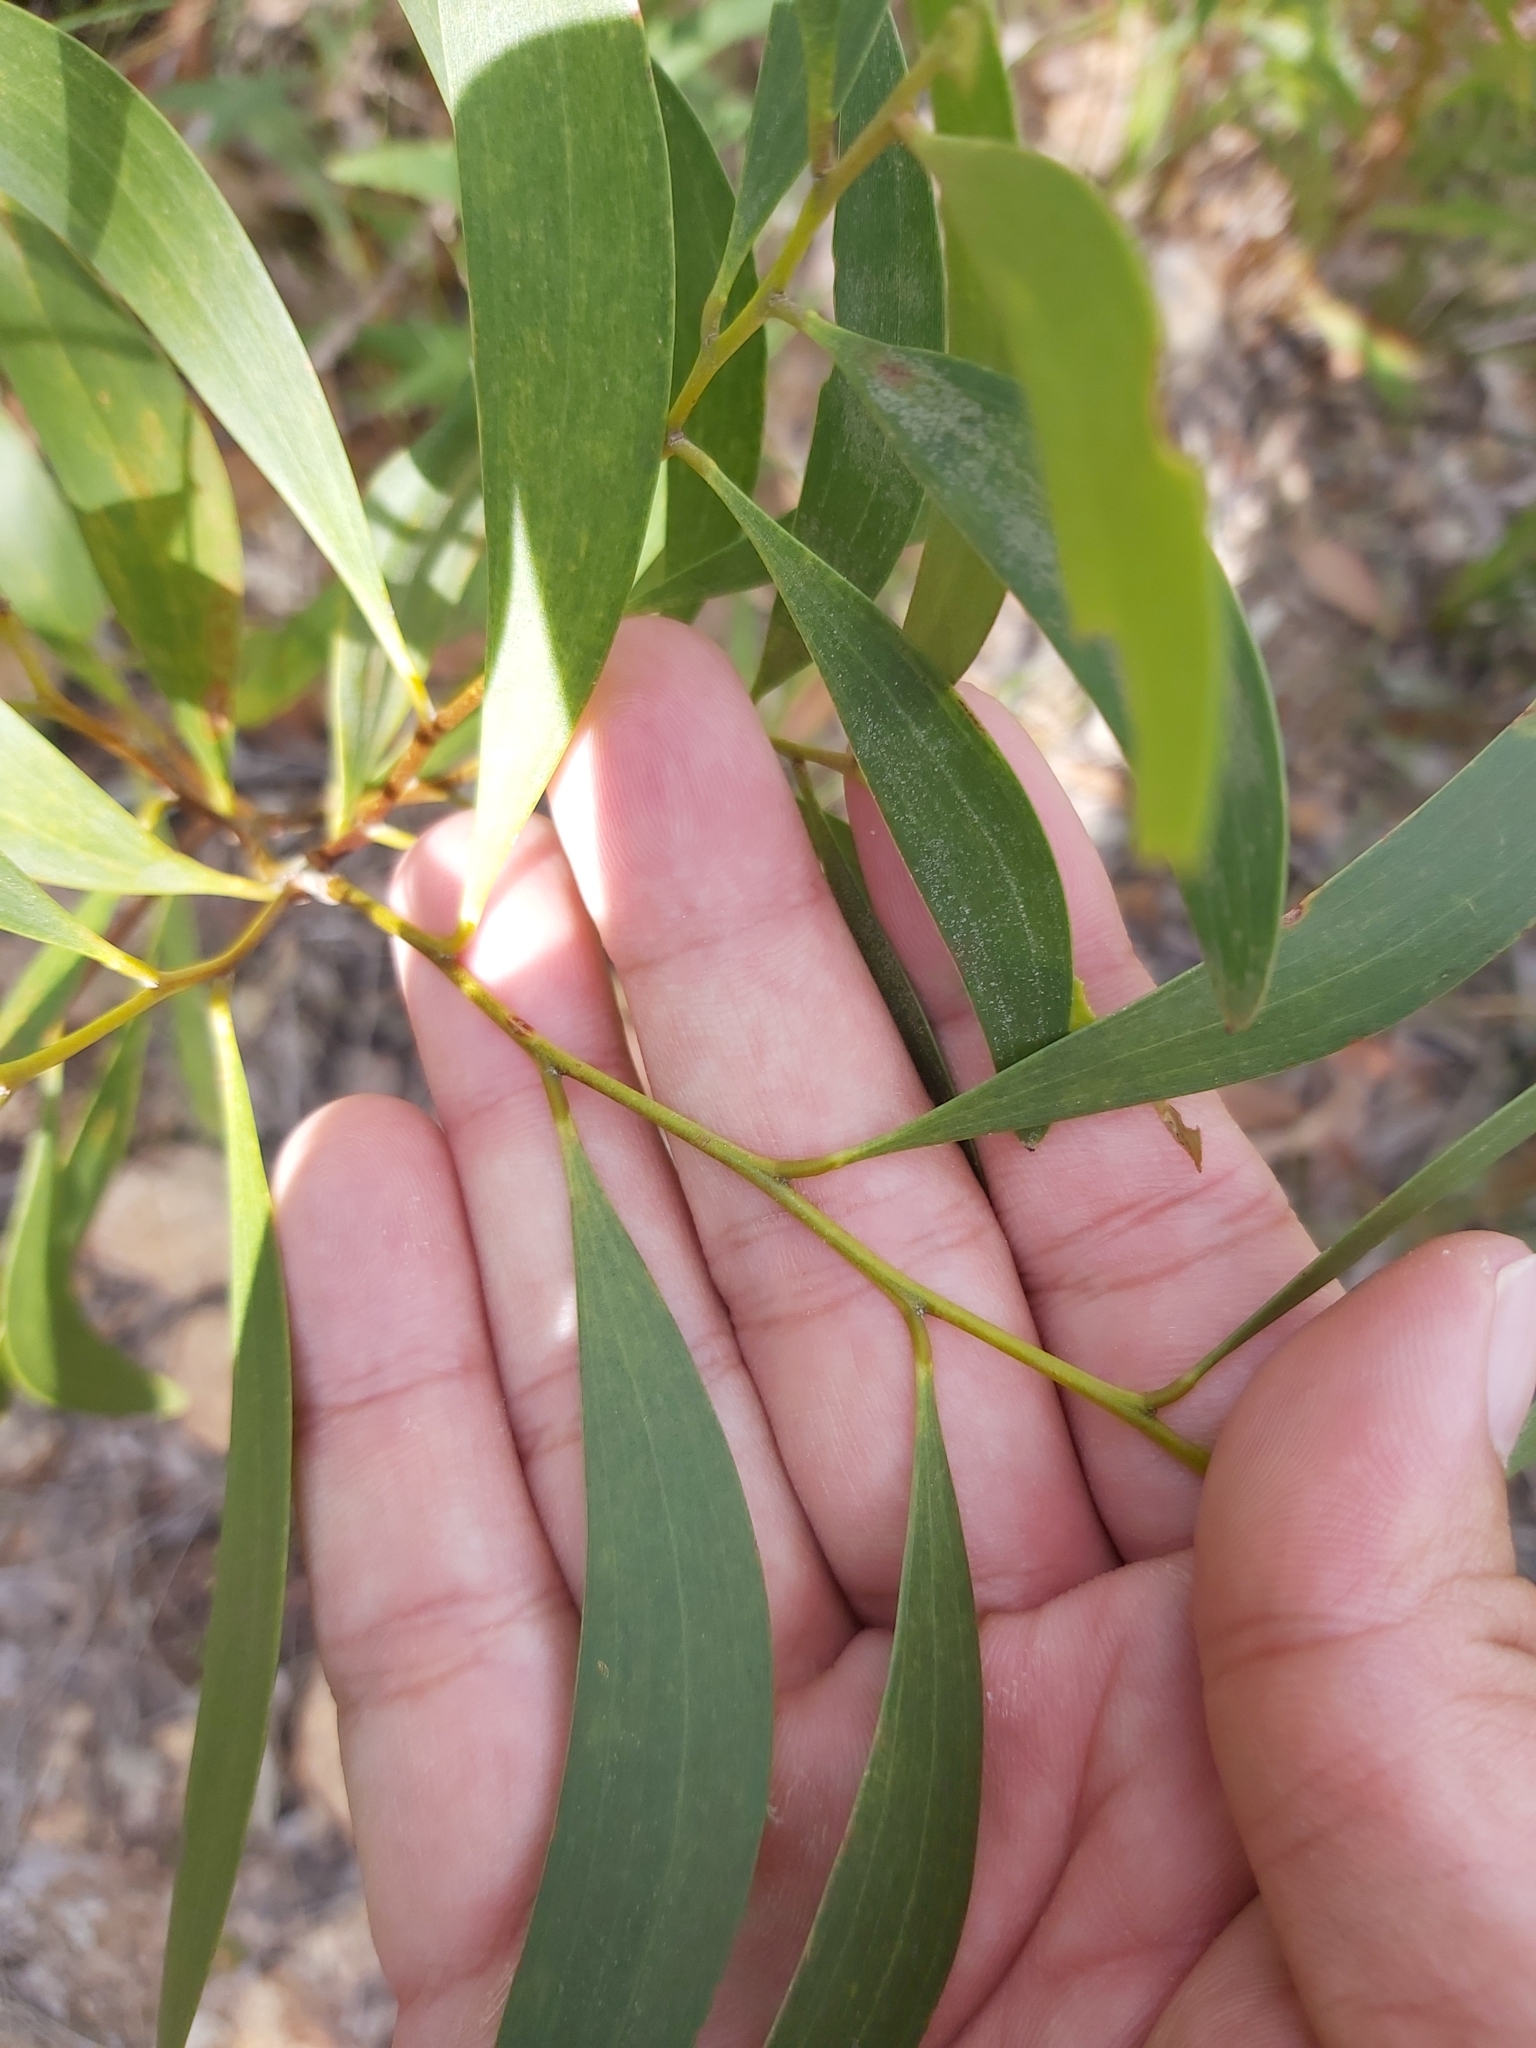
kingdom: Plantae
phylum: Tracheophyta
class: Magnoliopsida
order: Fabales
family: Fabaceae
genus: Acacia
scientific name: Acacia calyculata
